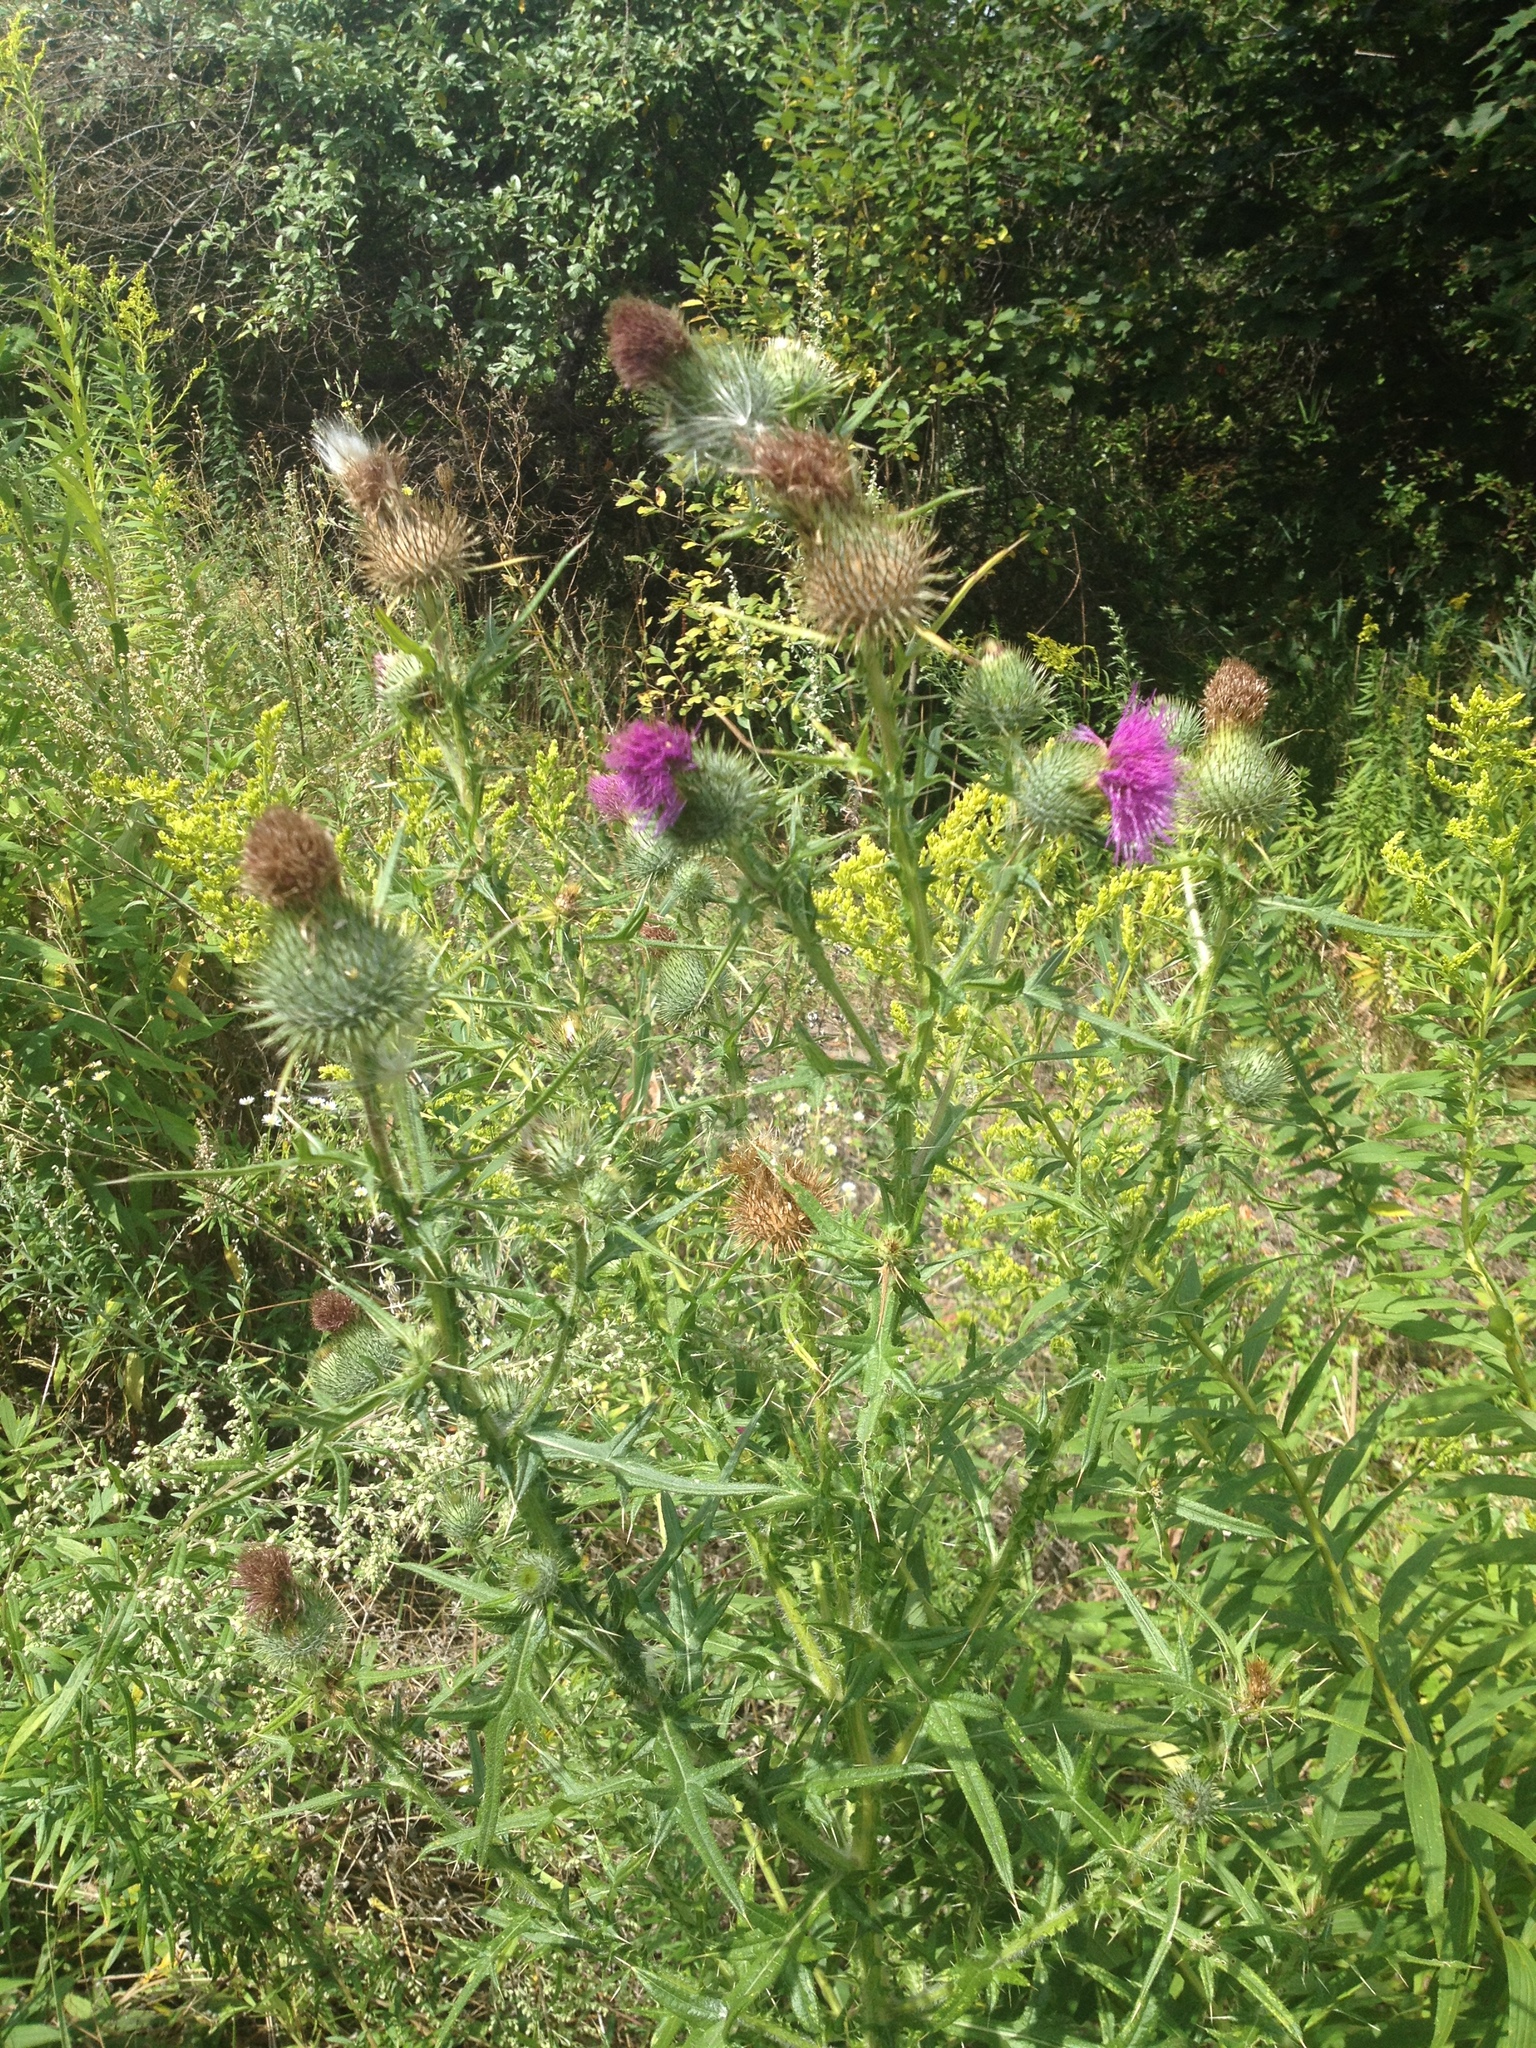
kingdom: Plantae
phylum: Tracheophyta
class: Magnoliopsida
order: Asterales
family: Asteraceae
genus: Cirsium
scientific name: Cirsium vulgare
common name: Bull thistle
